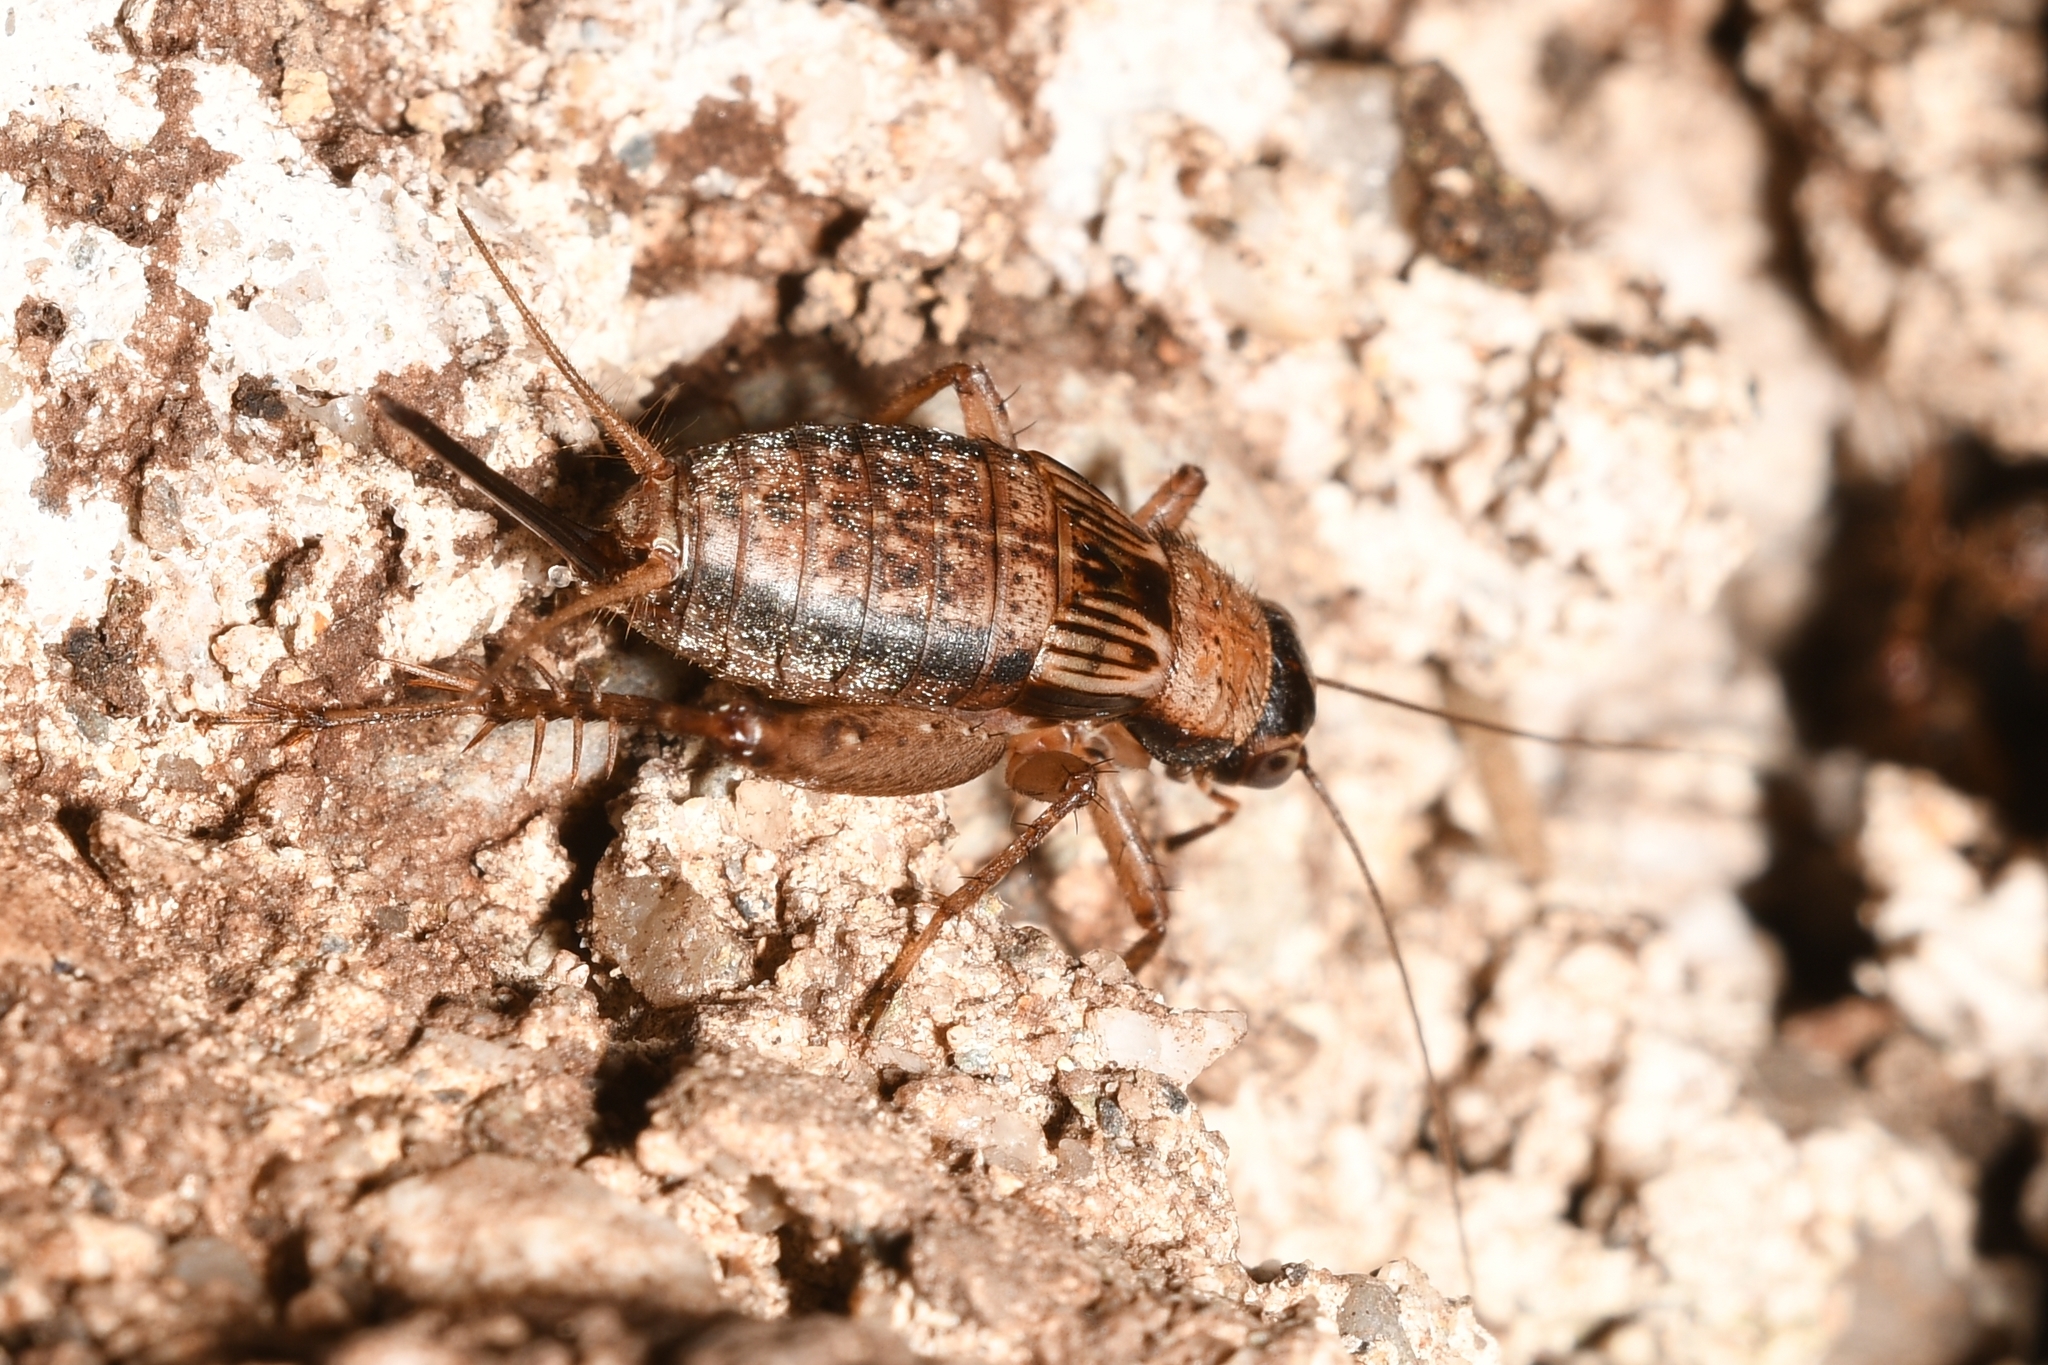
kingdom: Animalia
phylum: Arthropoda
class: Insecta
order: Orthoptera
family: Trigonidiidae
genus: Nemobius
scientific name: Nemobius sylvestris
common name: Wood-cricket
